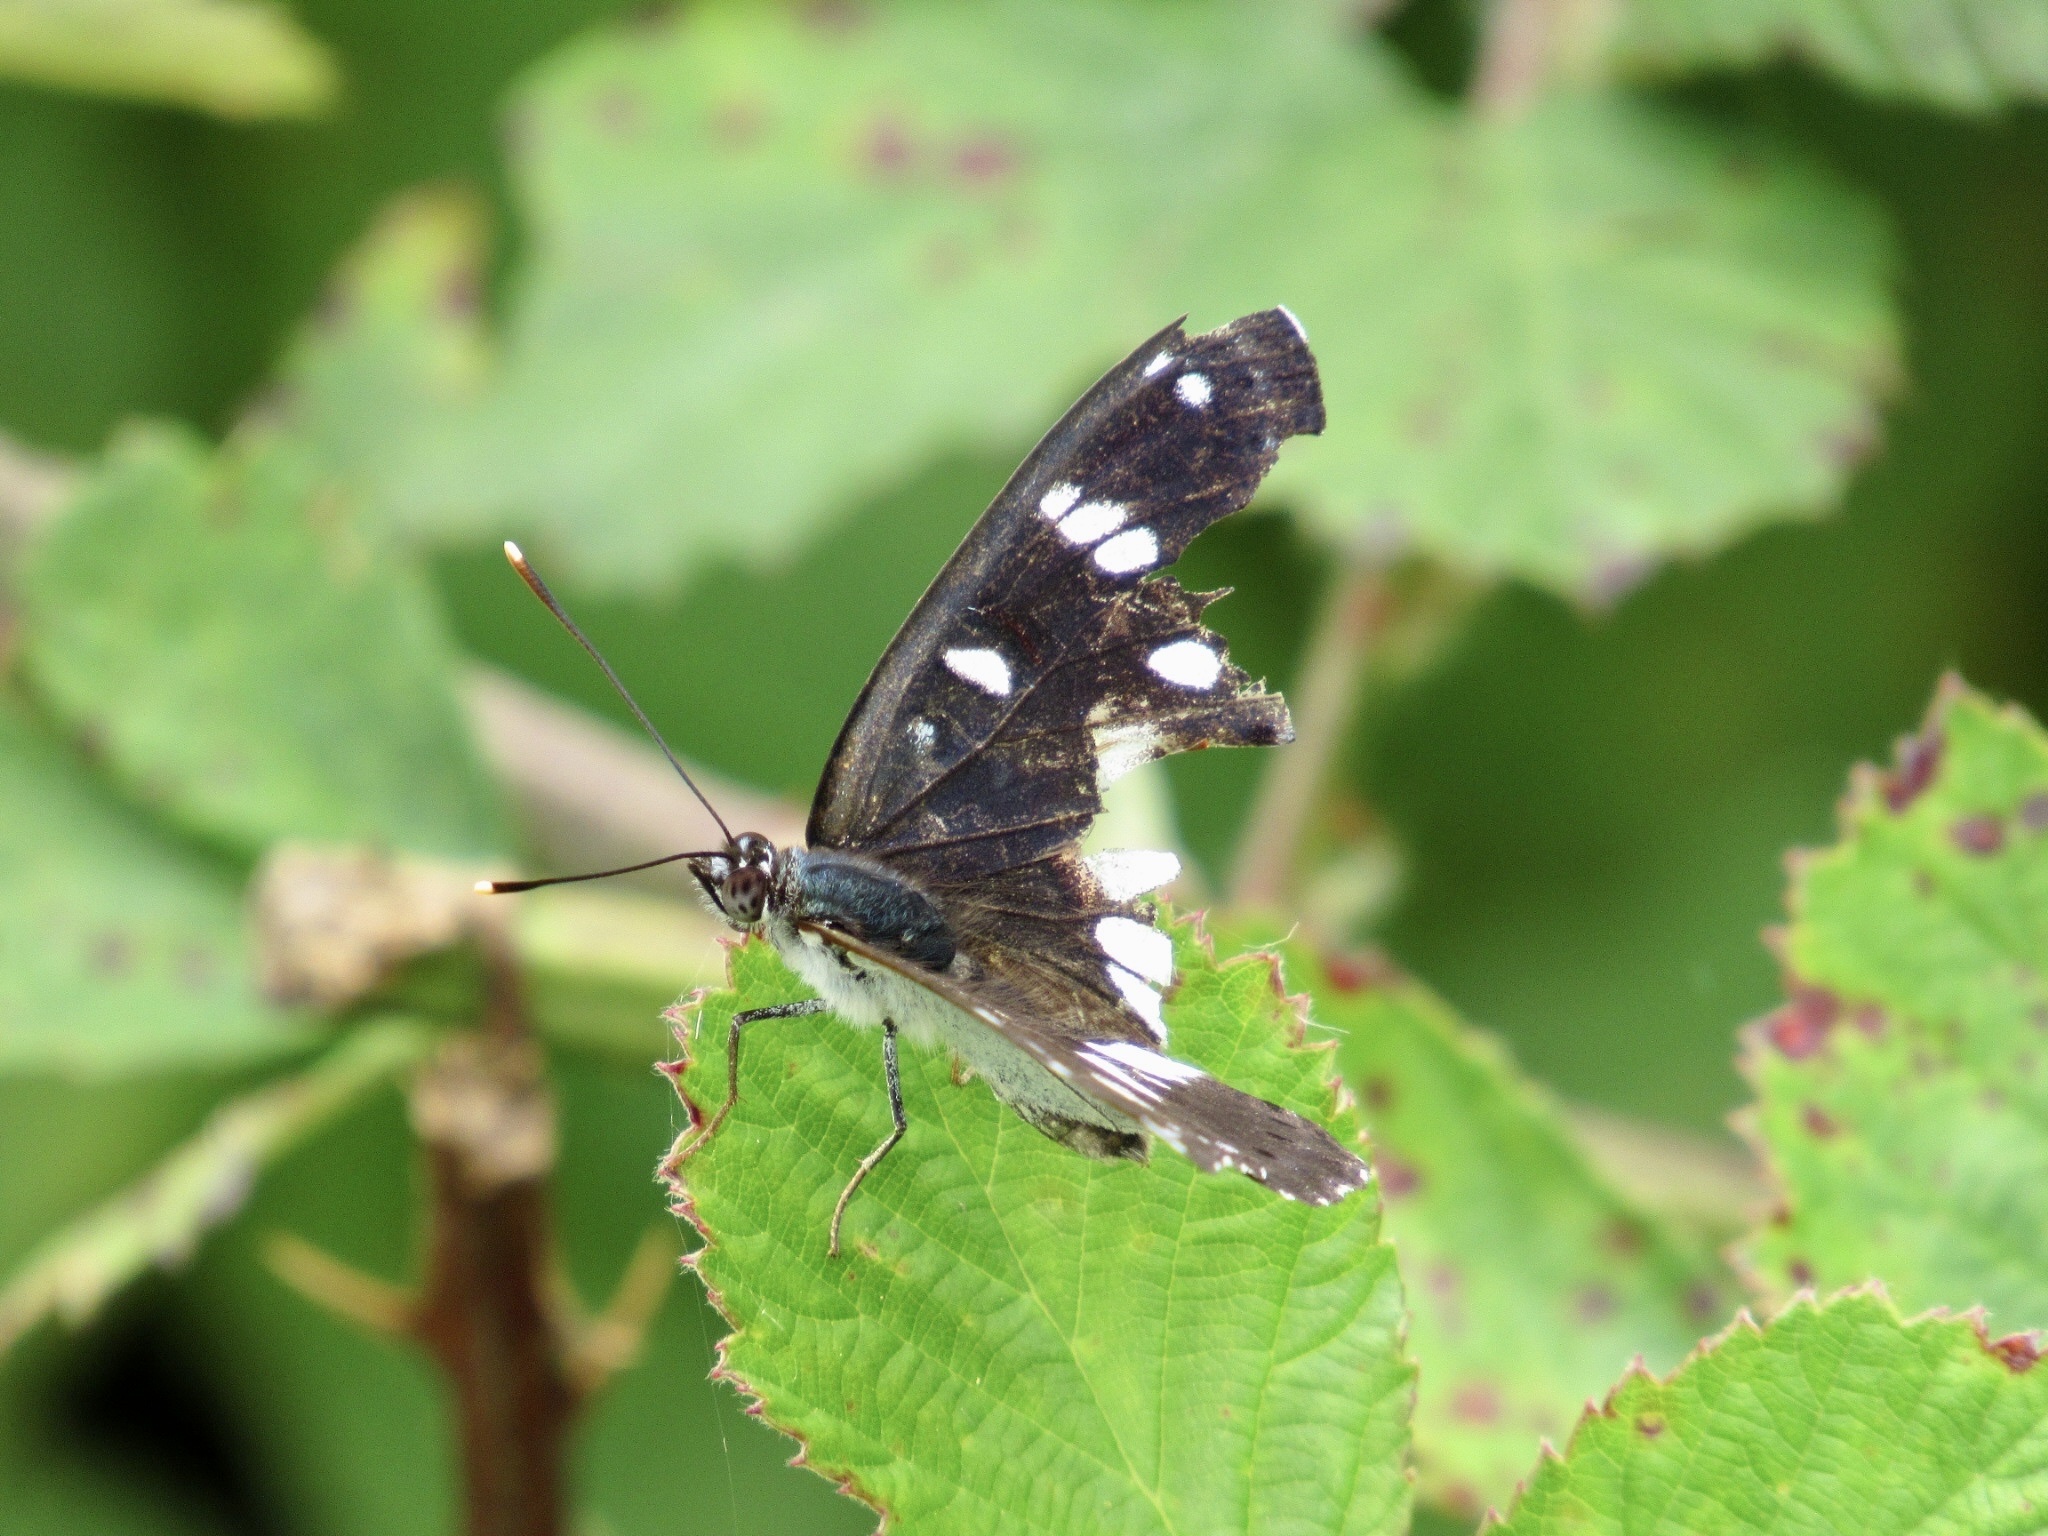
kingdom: Animalia
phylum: Arthropoda
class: Insecta
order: Lepidoptera
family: Nymphalidae
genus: Limenitis
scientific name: Limenitis reducta
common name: Southern white admiral
